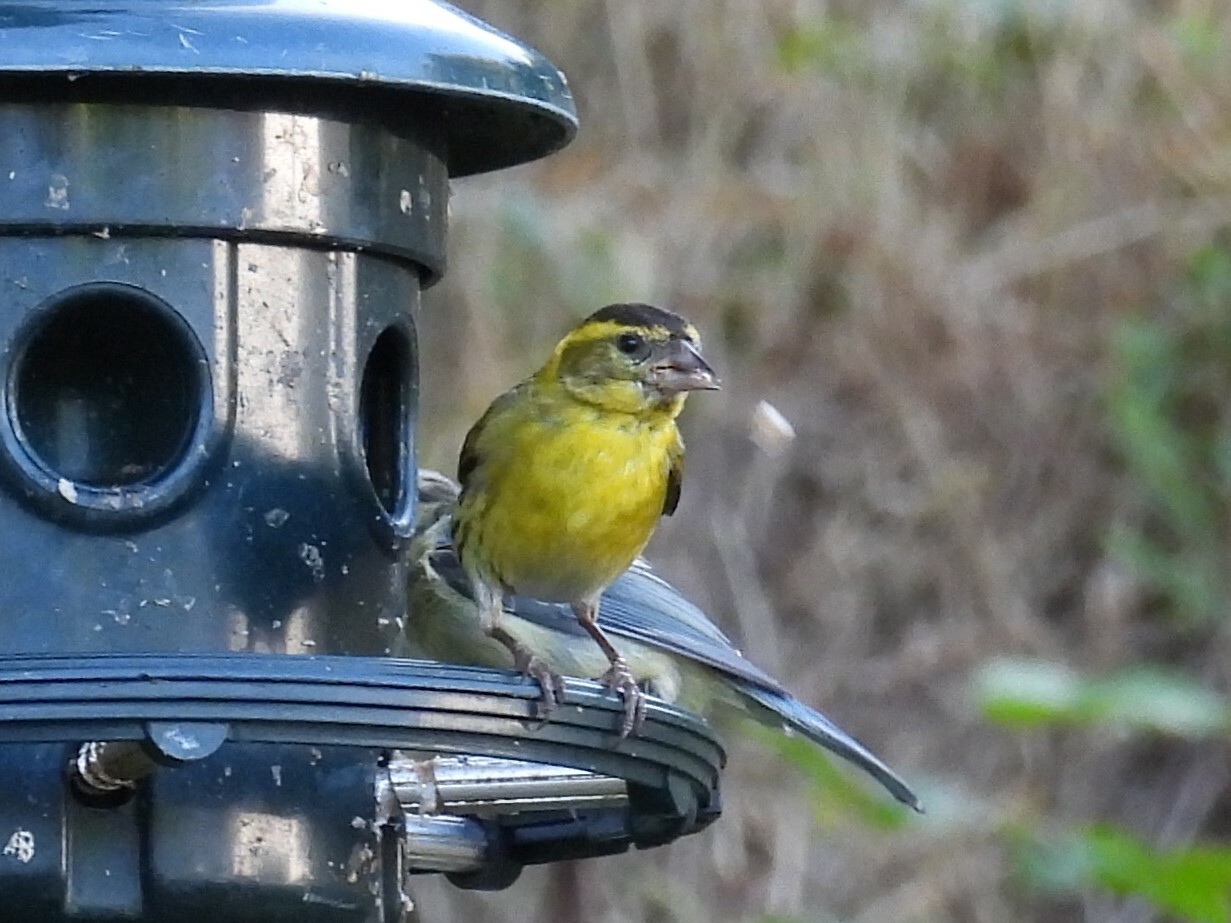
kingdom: Animalia
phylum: Chordata
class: Aves
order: Passeriformes
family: Fringillidae
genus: Spinus
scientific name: Spinus spinus
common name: Eurasian siskin
